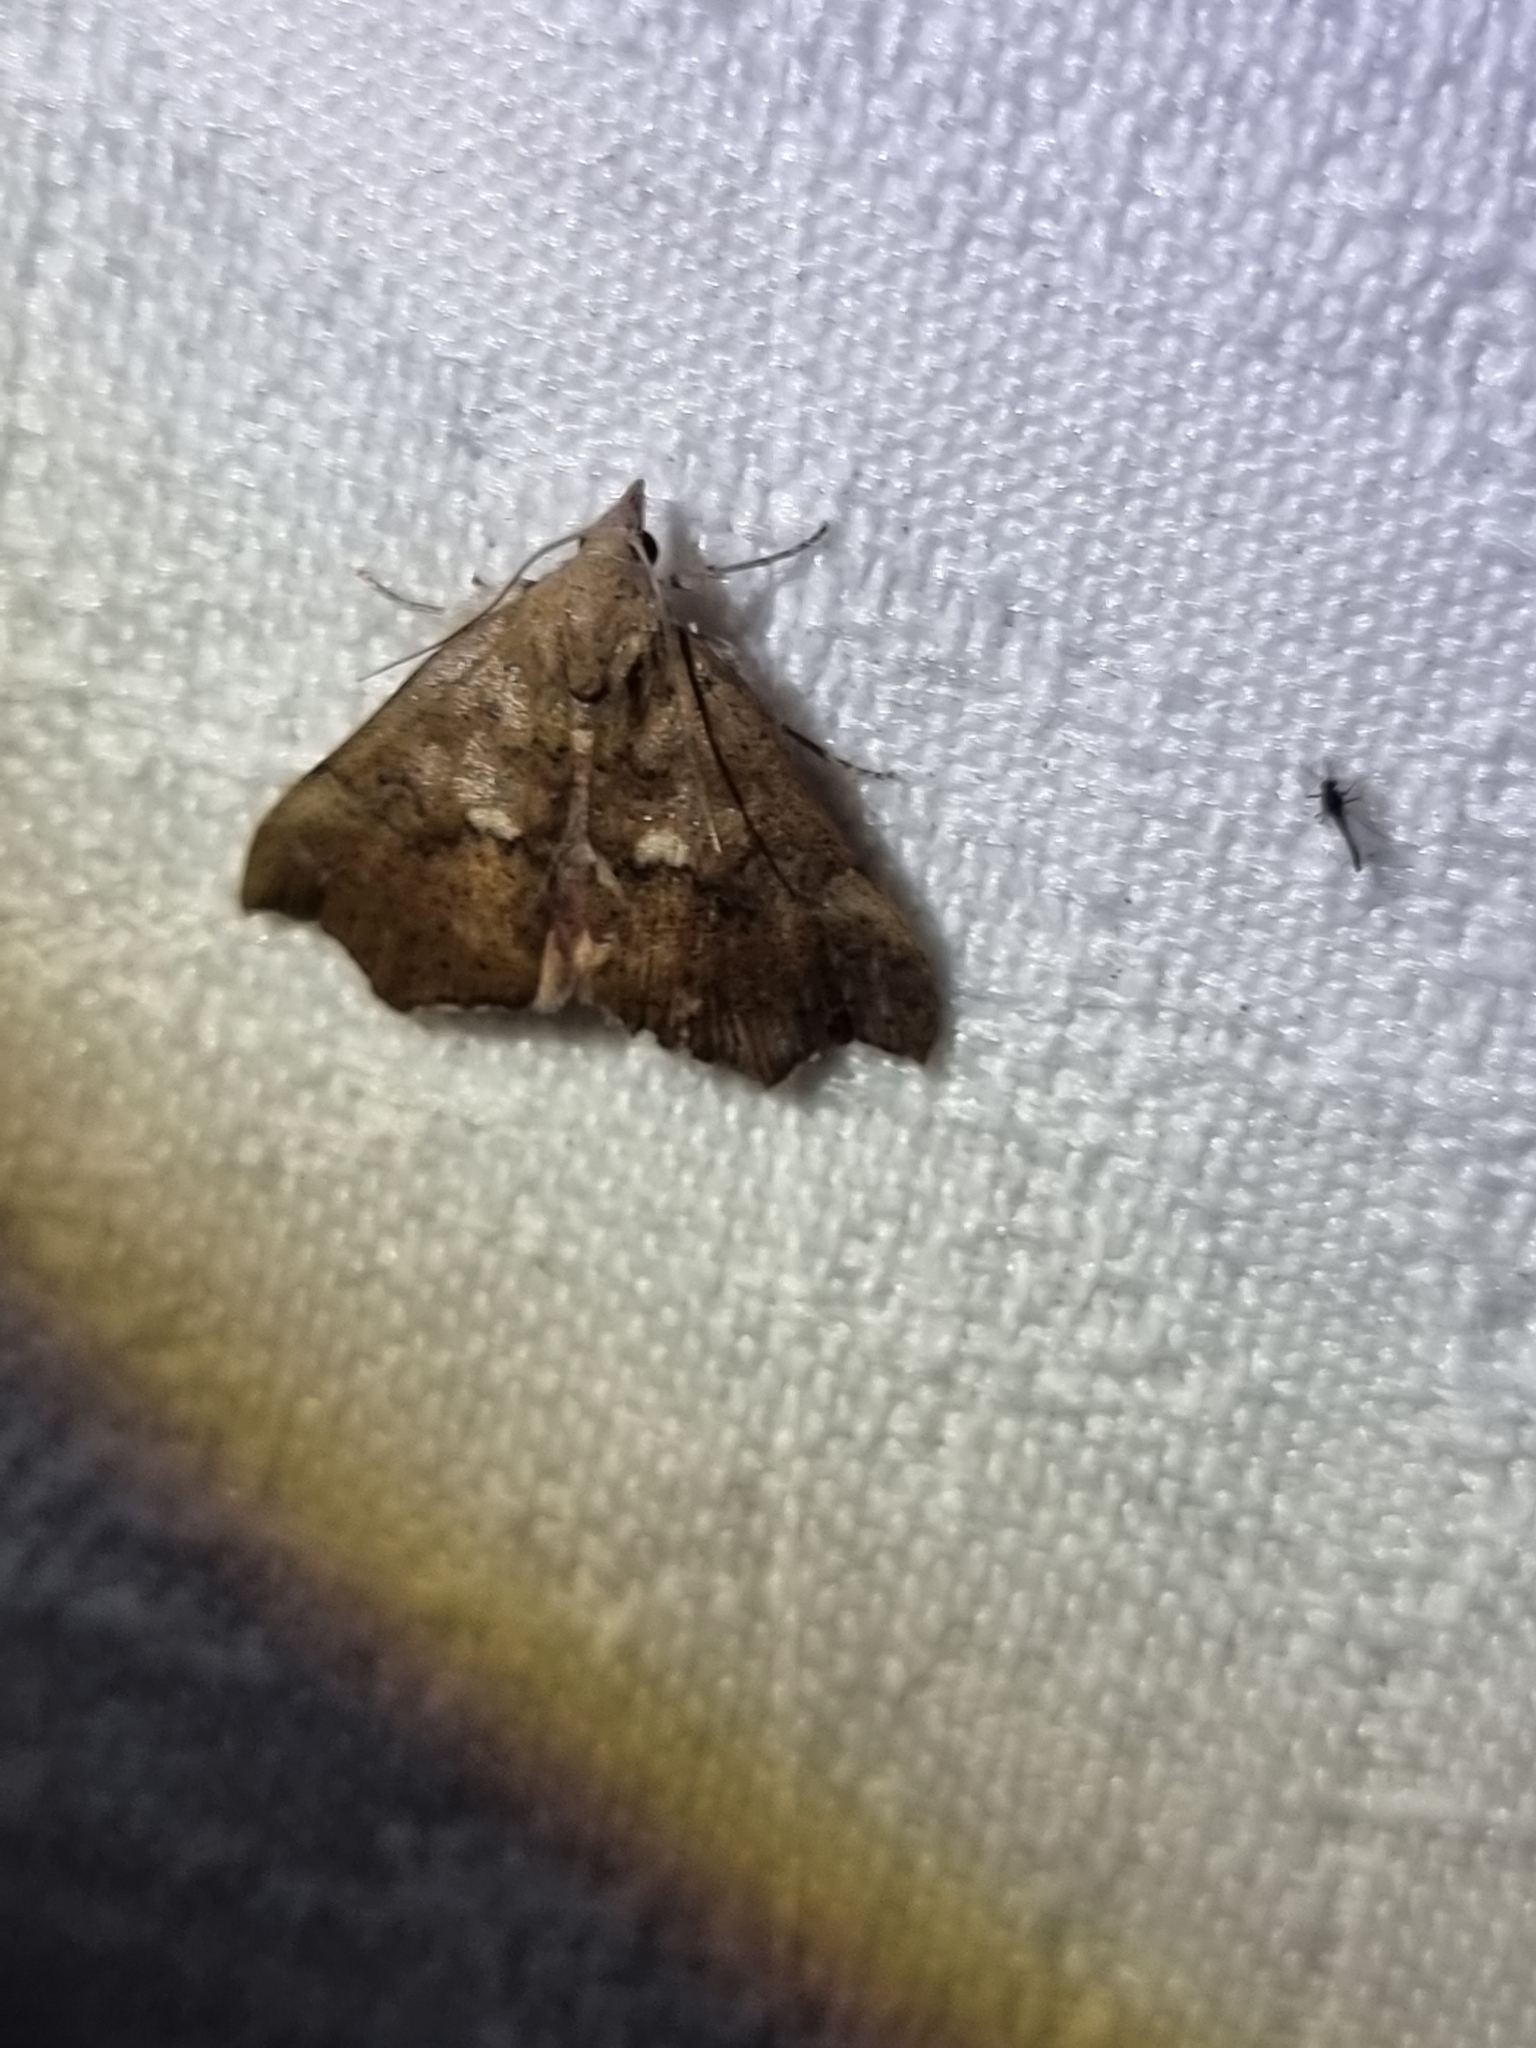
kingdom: Animalia
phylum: Arthropoda
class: Insecta
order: Lepidoptera
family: Erebidae
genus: Axiocteta
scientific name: Axiocteta oenoplex
